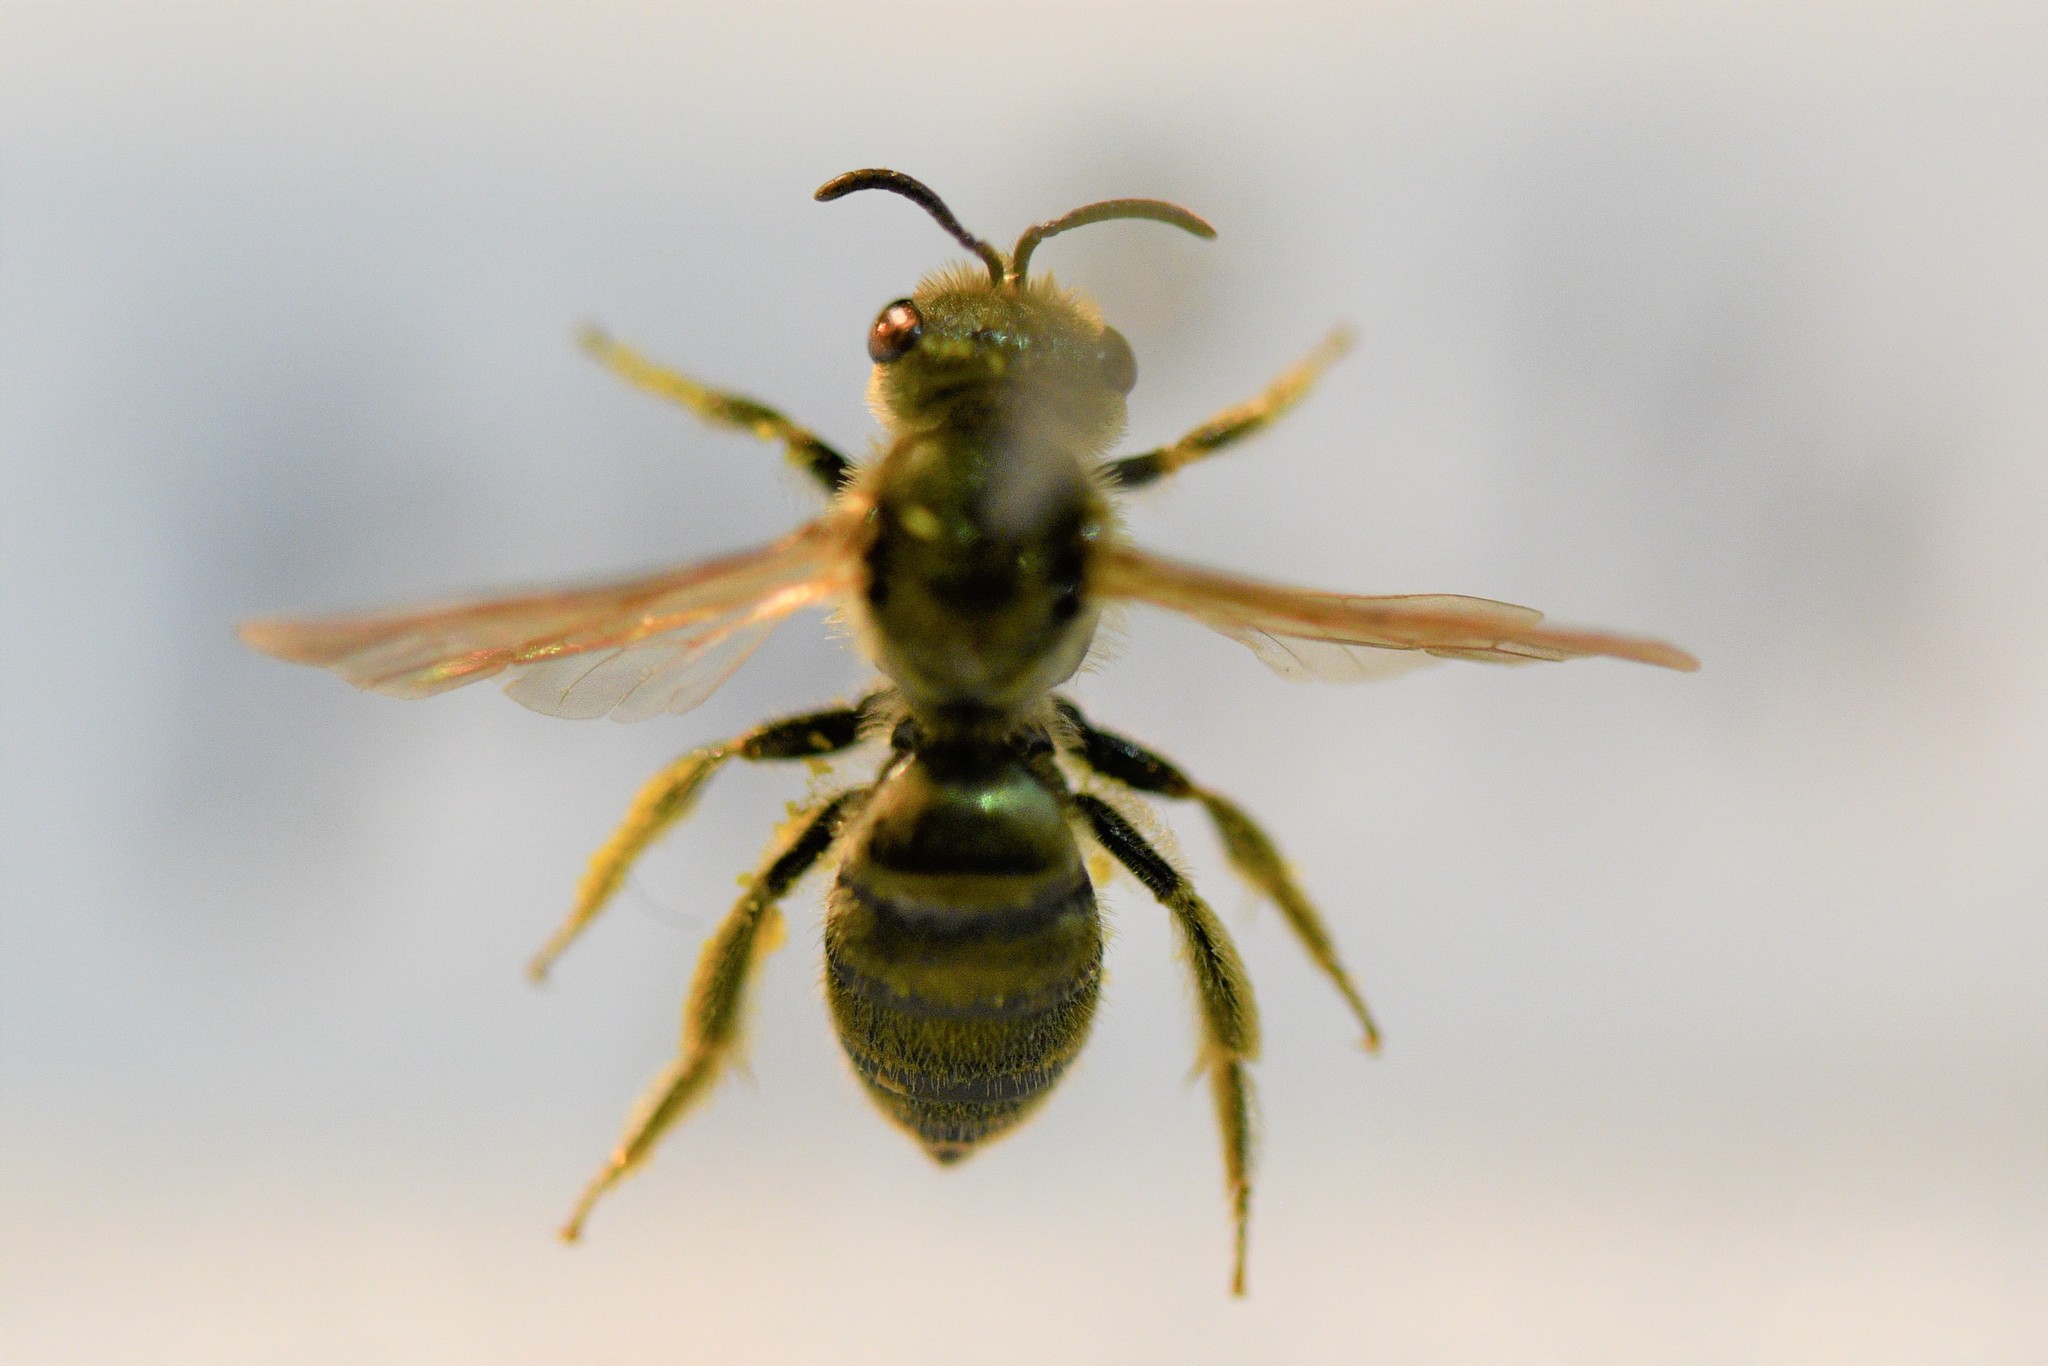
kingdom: Animalia
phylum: Arthropoda
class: Insecta
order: Hymenoptera
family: Halictidae
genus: Halictus
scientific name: Halictus subauratus
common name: Golden furrow bee
